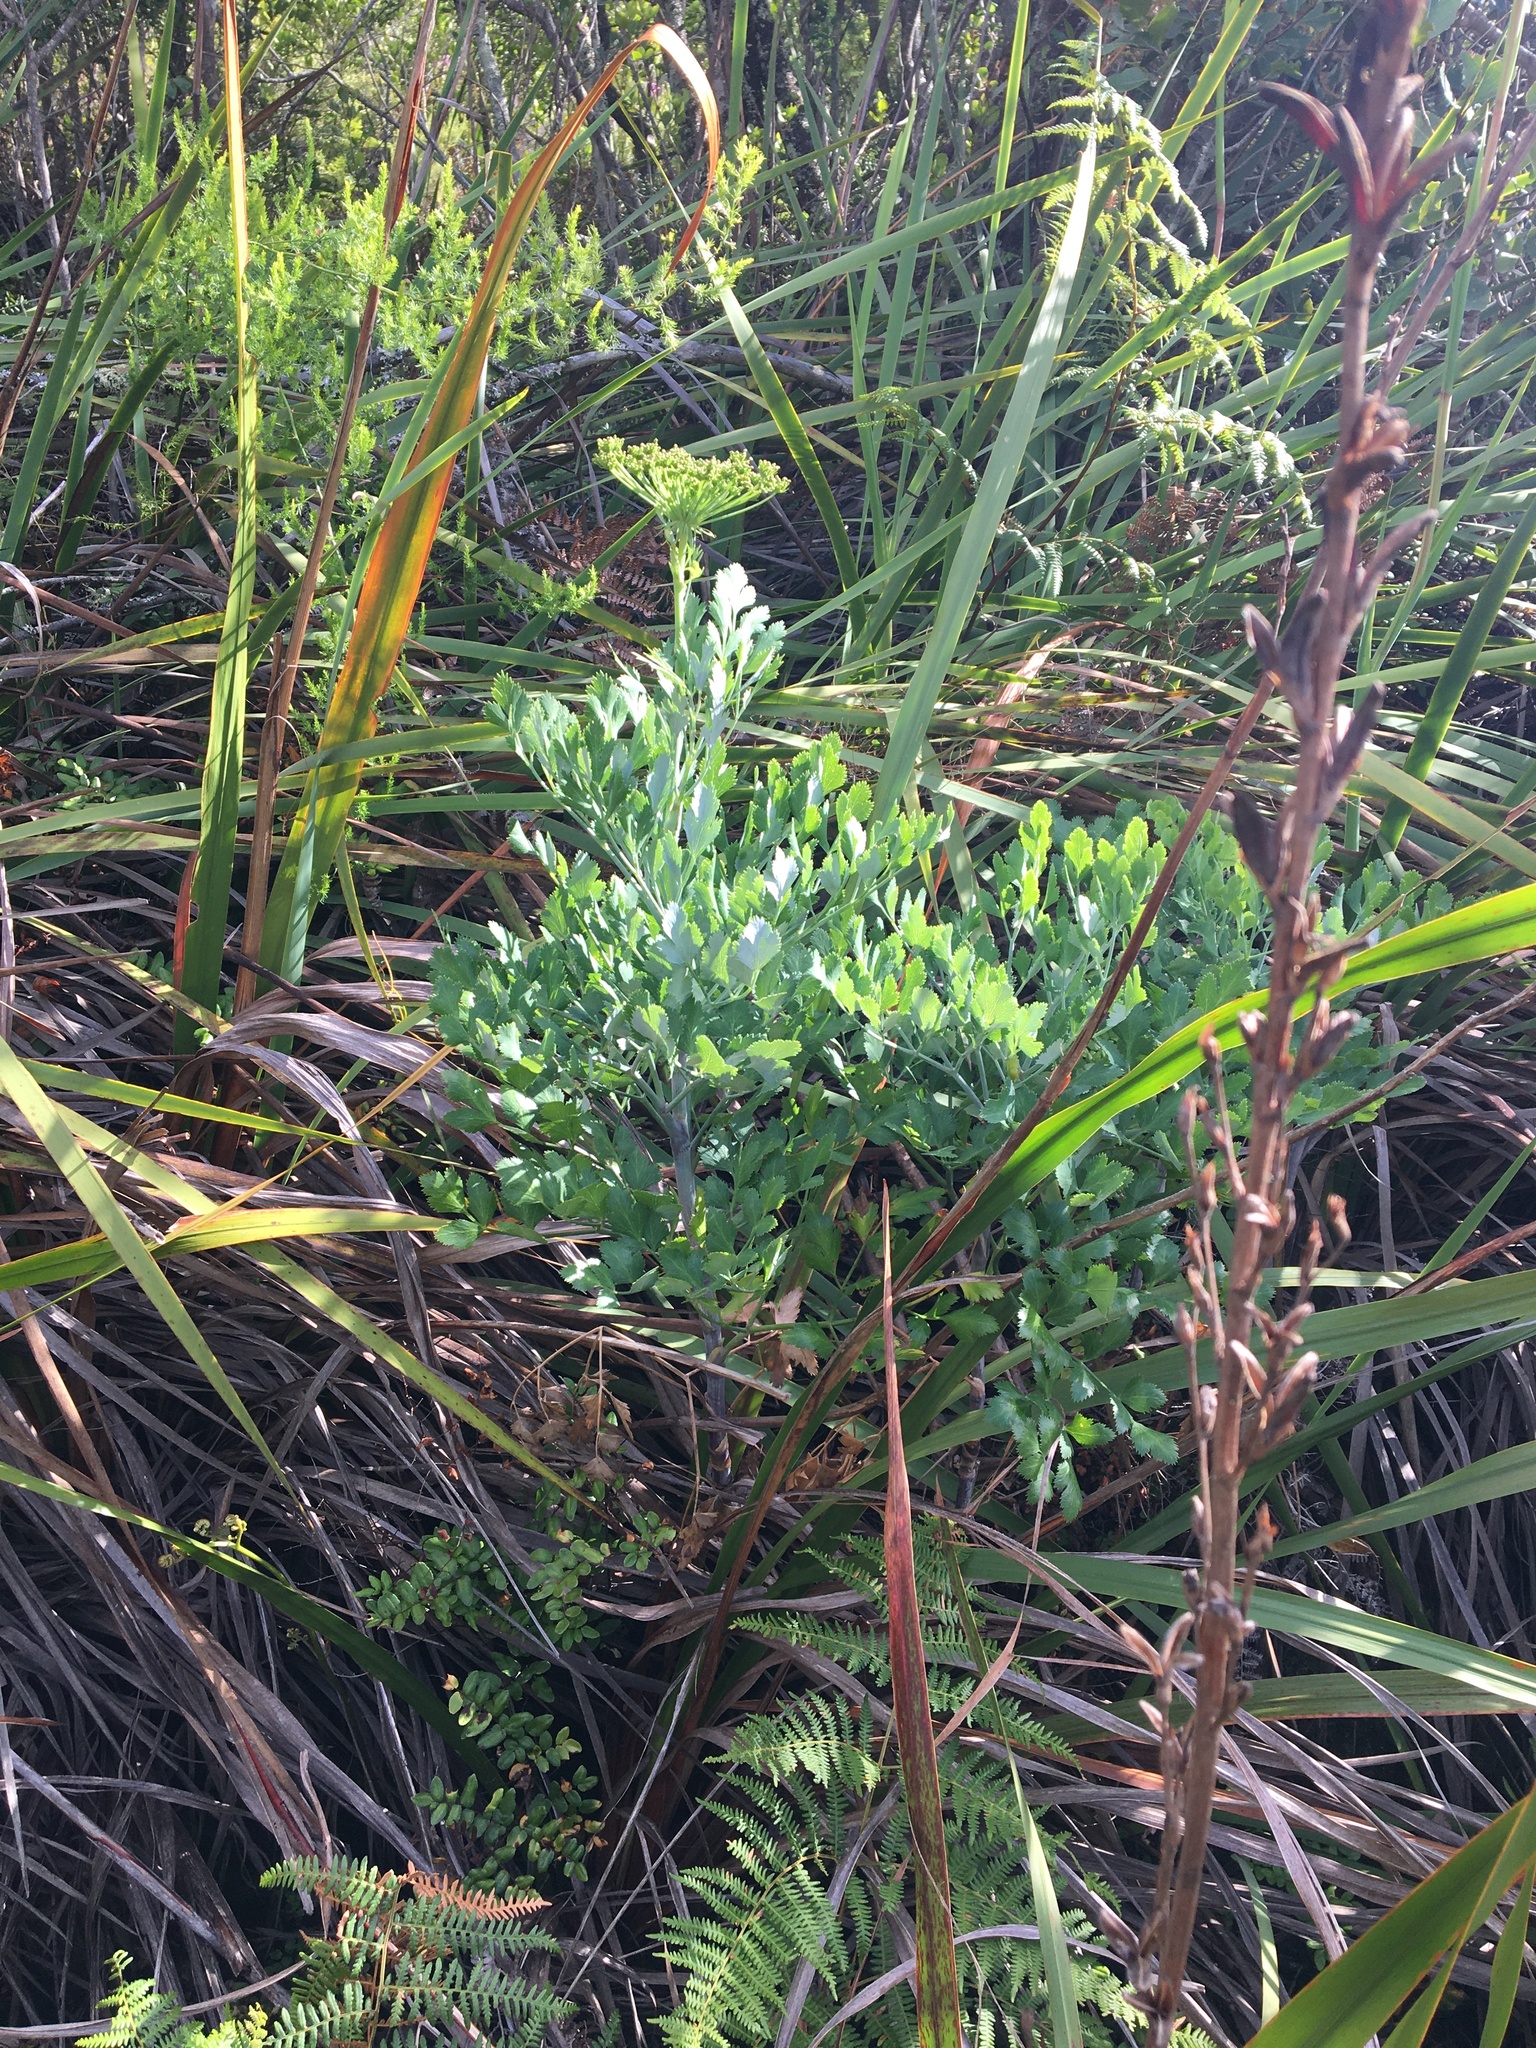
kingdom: Plantae
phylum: Tracheophyta
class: Magnoliopsida
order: Apiales
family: Apiaceae
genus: Notobubon
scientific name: Notobubon galbanum
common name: Blisterbush
